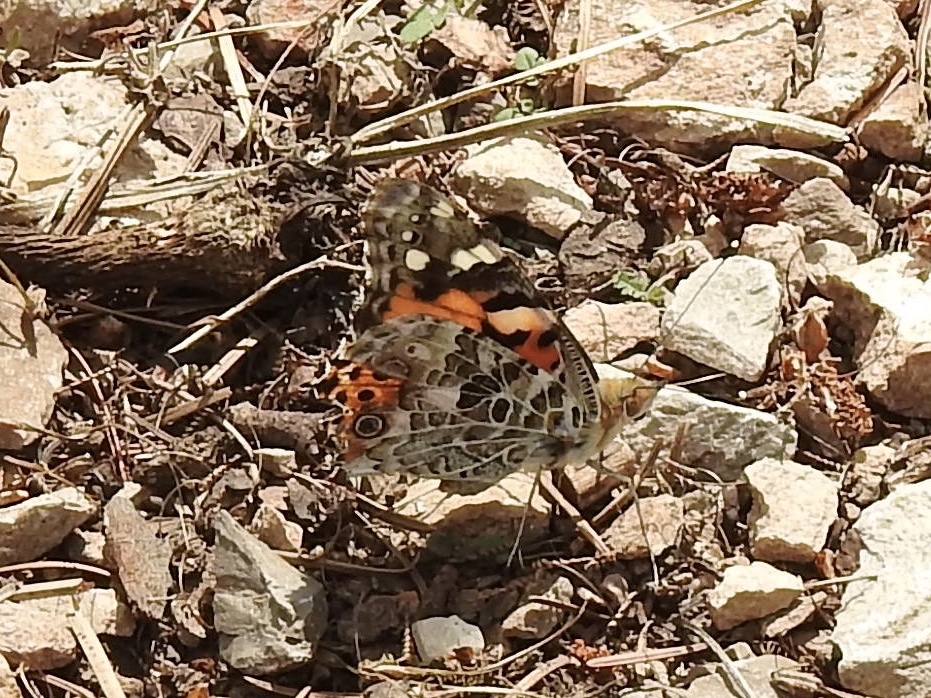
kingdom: Animalia
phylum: Arthropoda
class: Insecta
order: Lepidoptera
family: Nymphalidae
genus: Vanessa
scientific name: Vanessa cardui
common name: Painted lady
